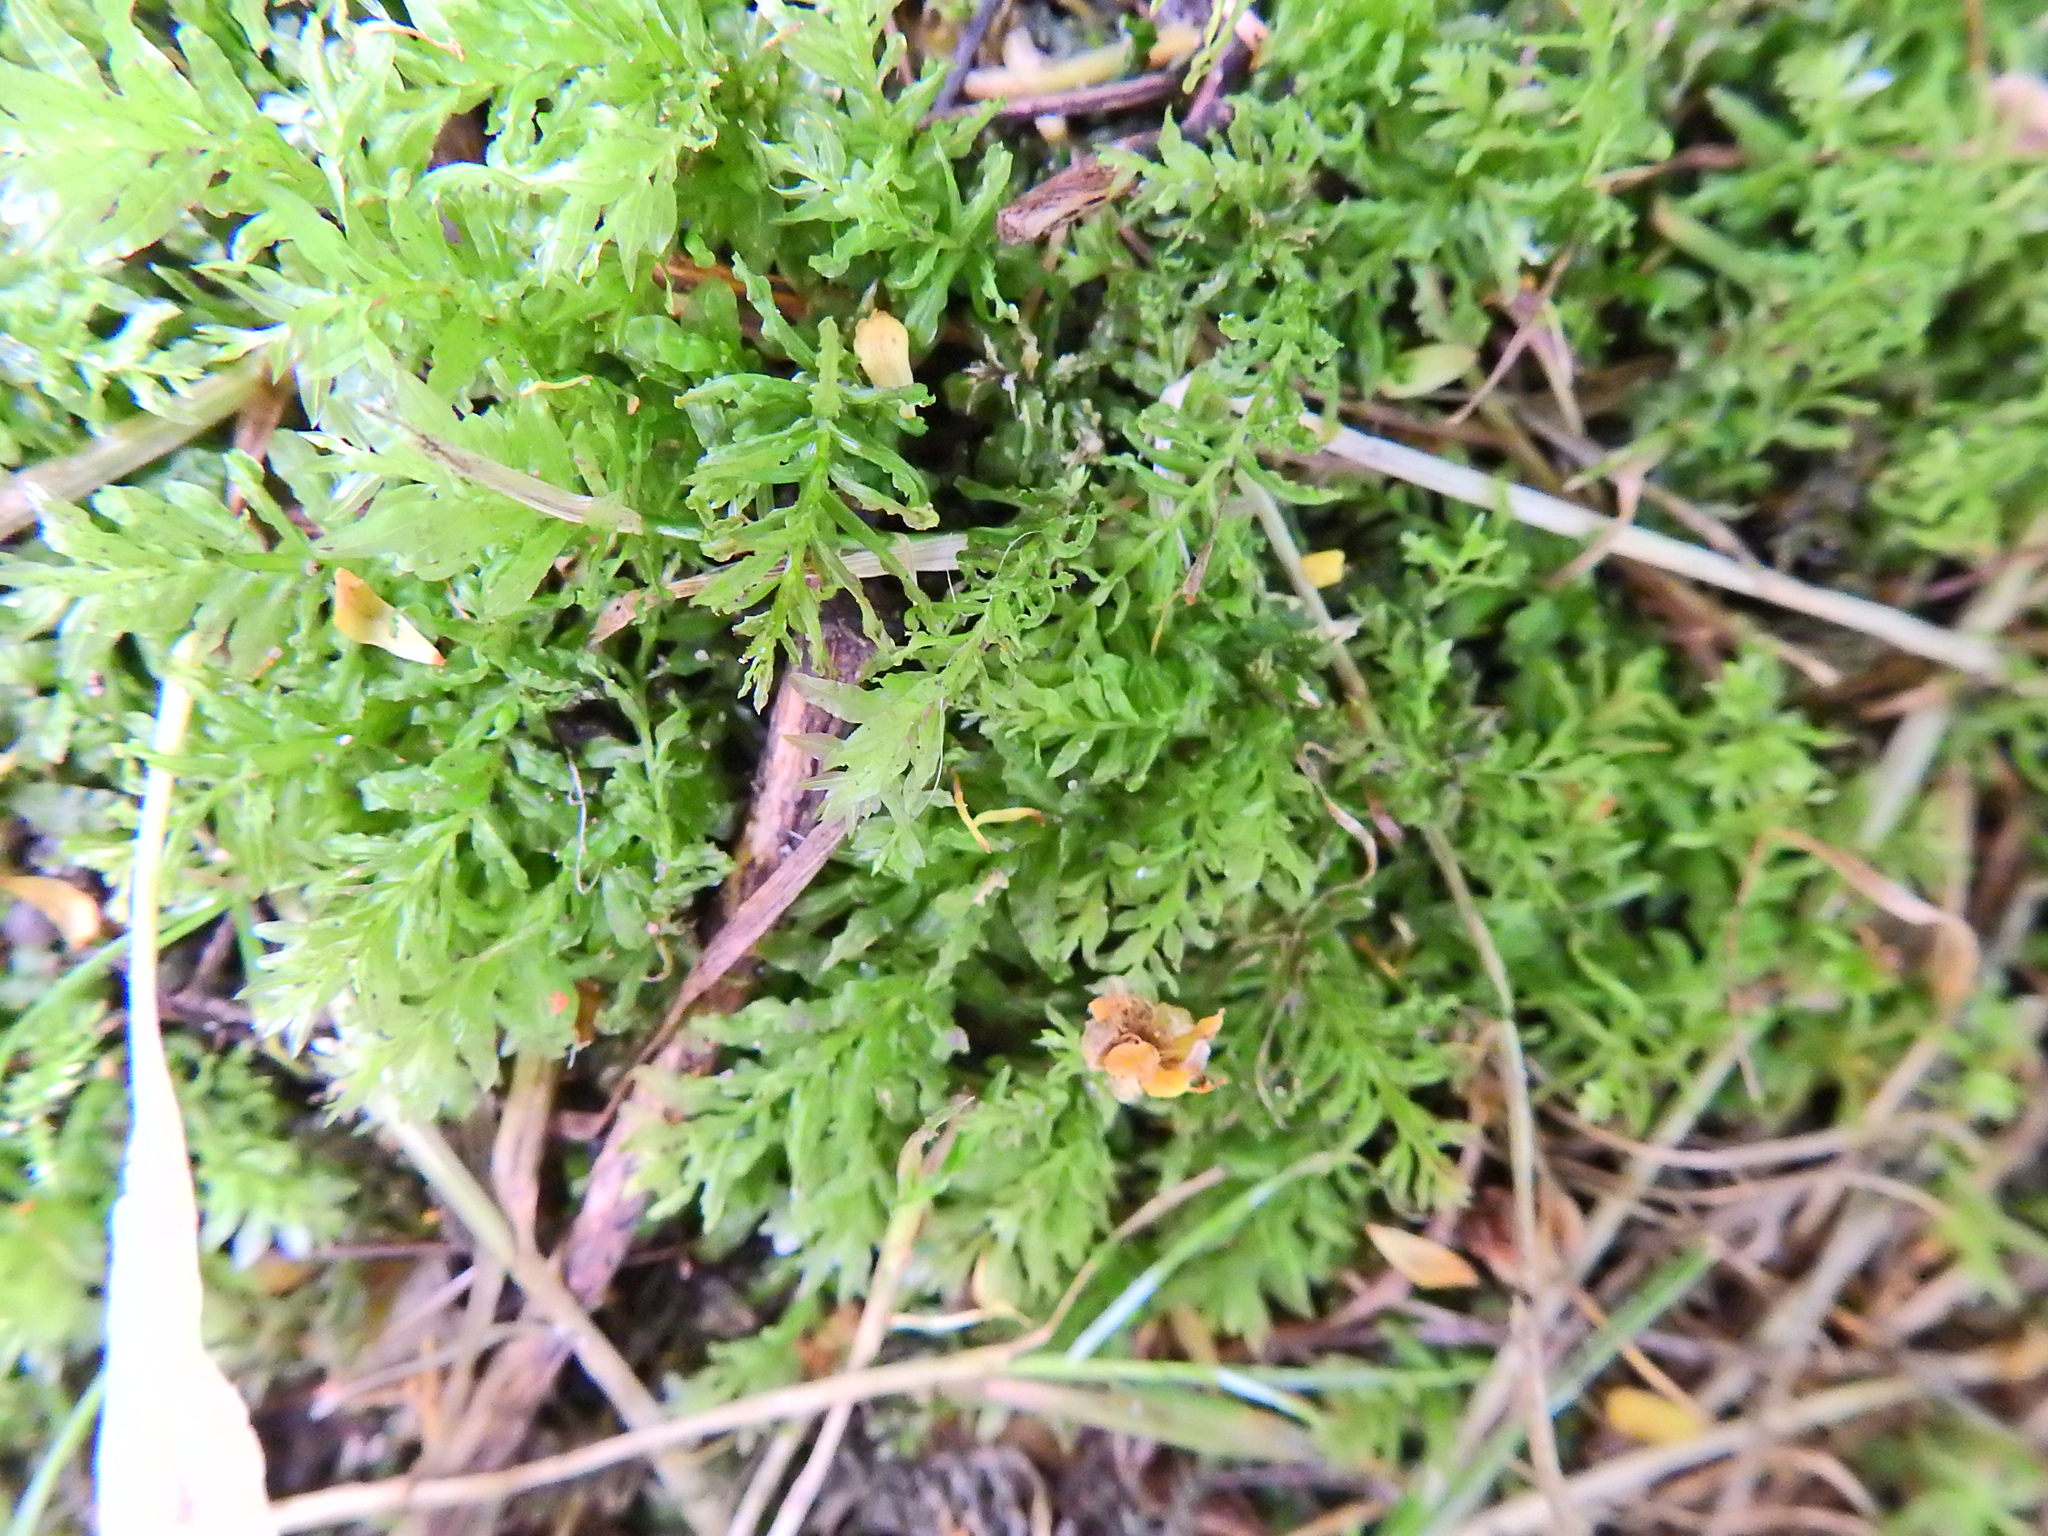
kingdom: Plantae
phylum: Bryophyta
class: Bryopsida
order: Bryales
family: Mniaceae
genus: Plagiomnium
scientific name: Plagiomnium undulatum
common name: Hart's-tongue thyme-moss
